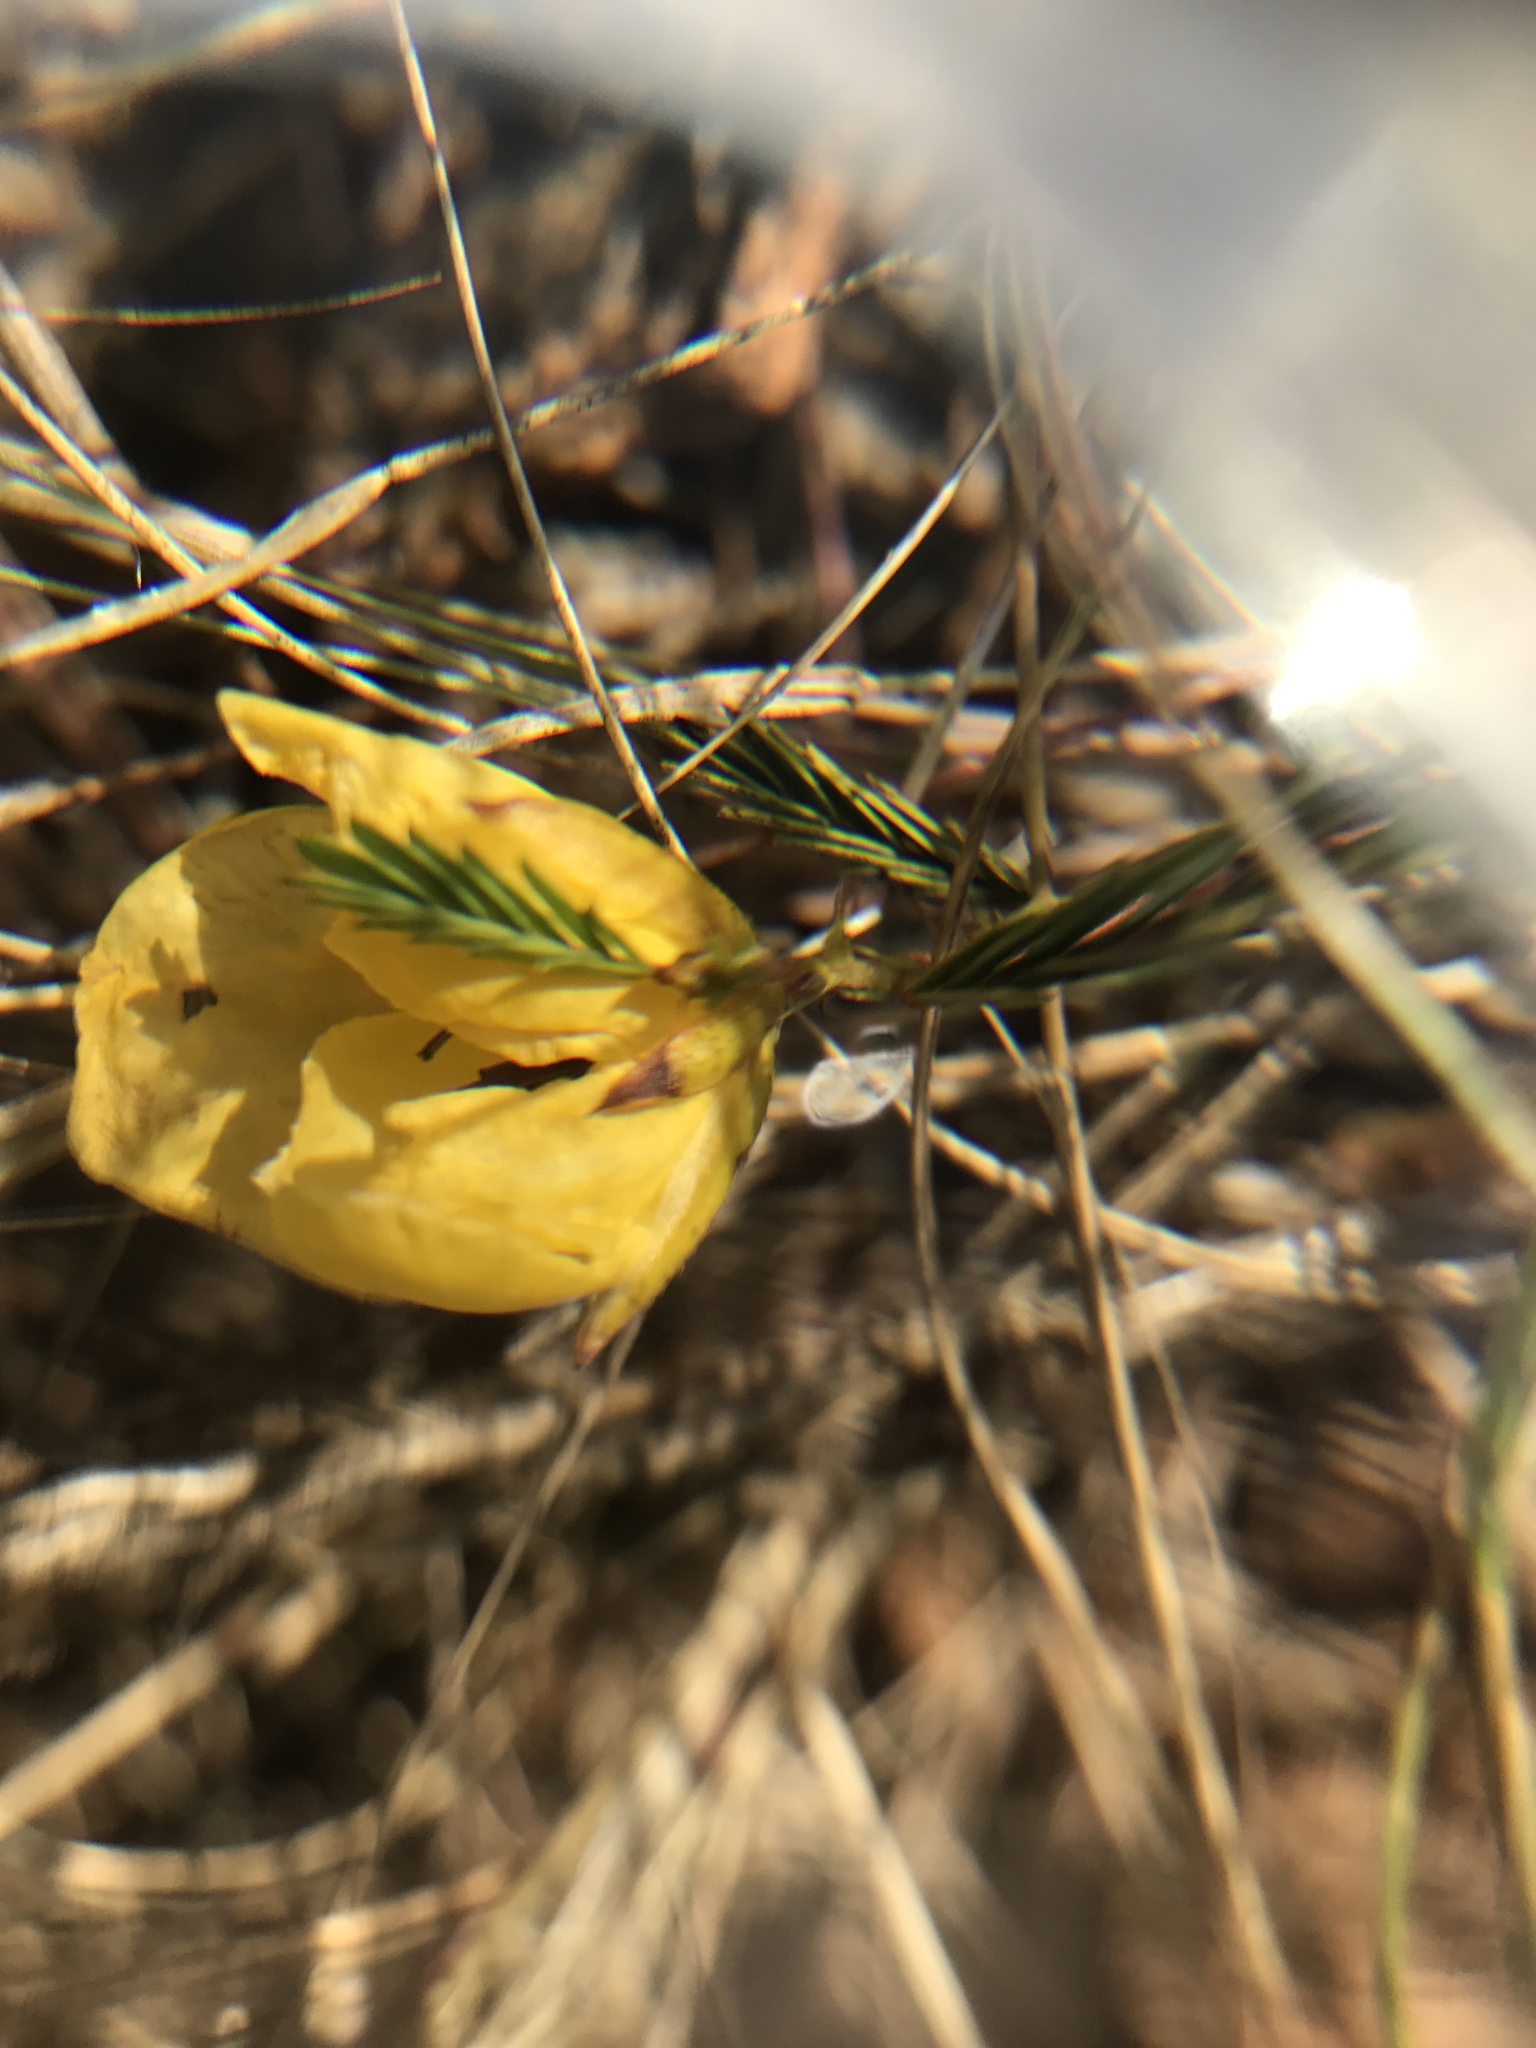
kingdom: Plantae
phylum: Tracheophyta
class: Magnoliopsida
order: Fabales
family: Fabaceae
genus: Chamaecrista
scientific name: Chamaecrista fasciculata
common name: Golden cassia
